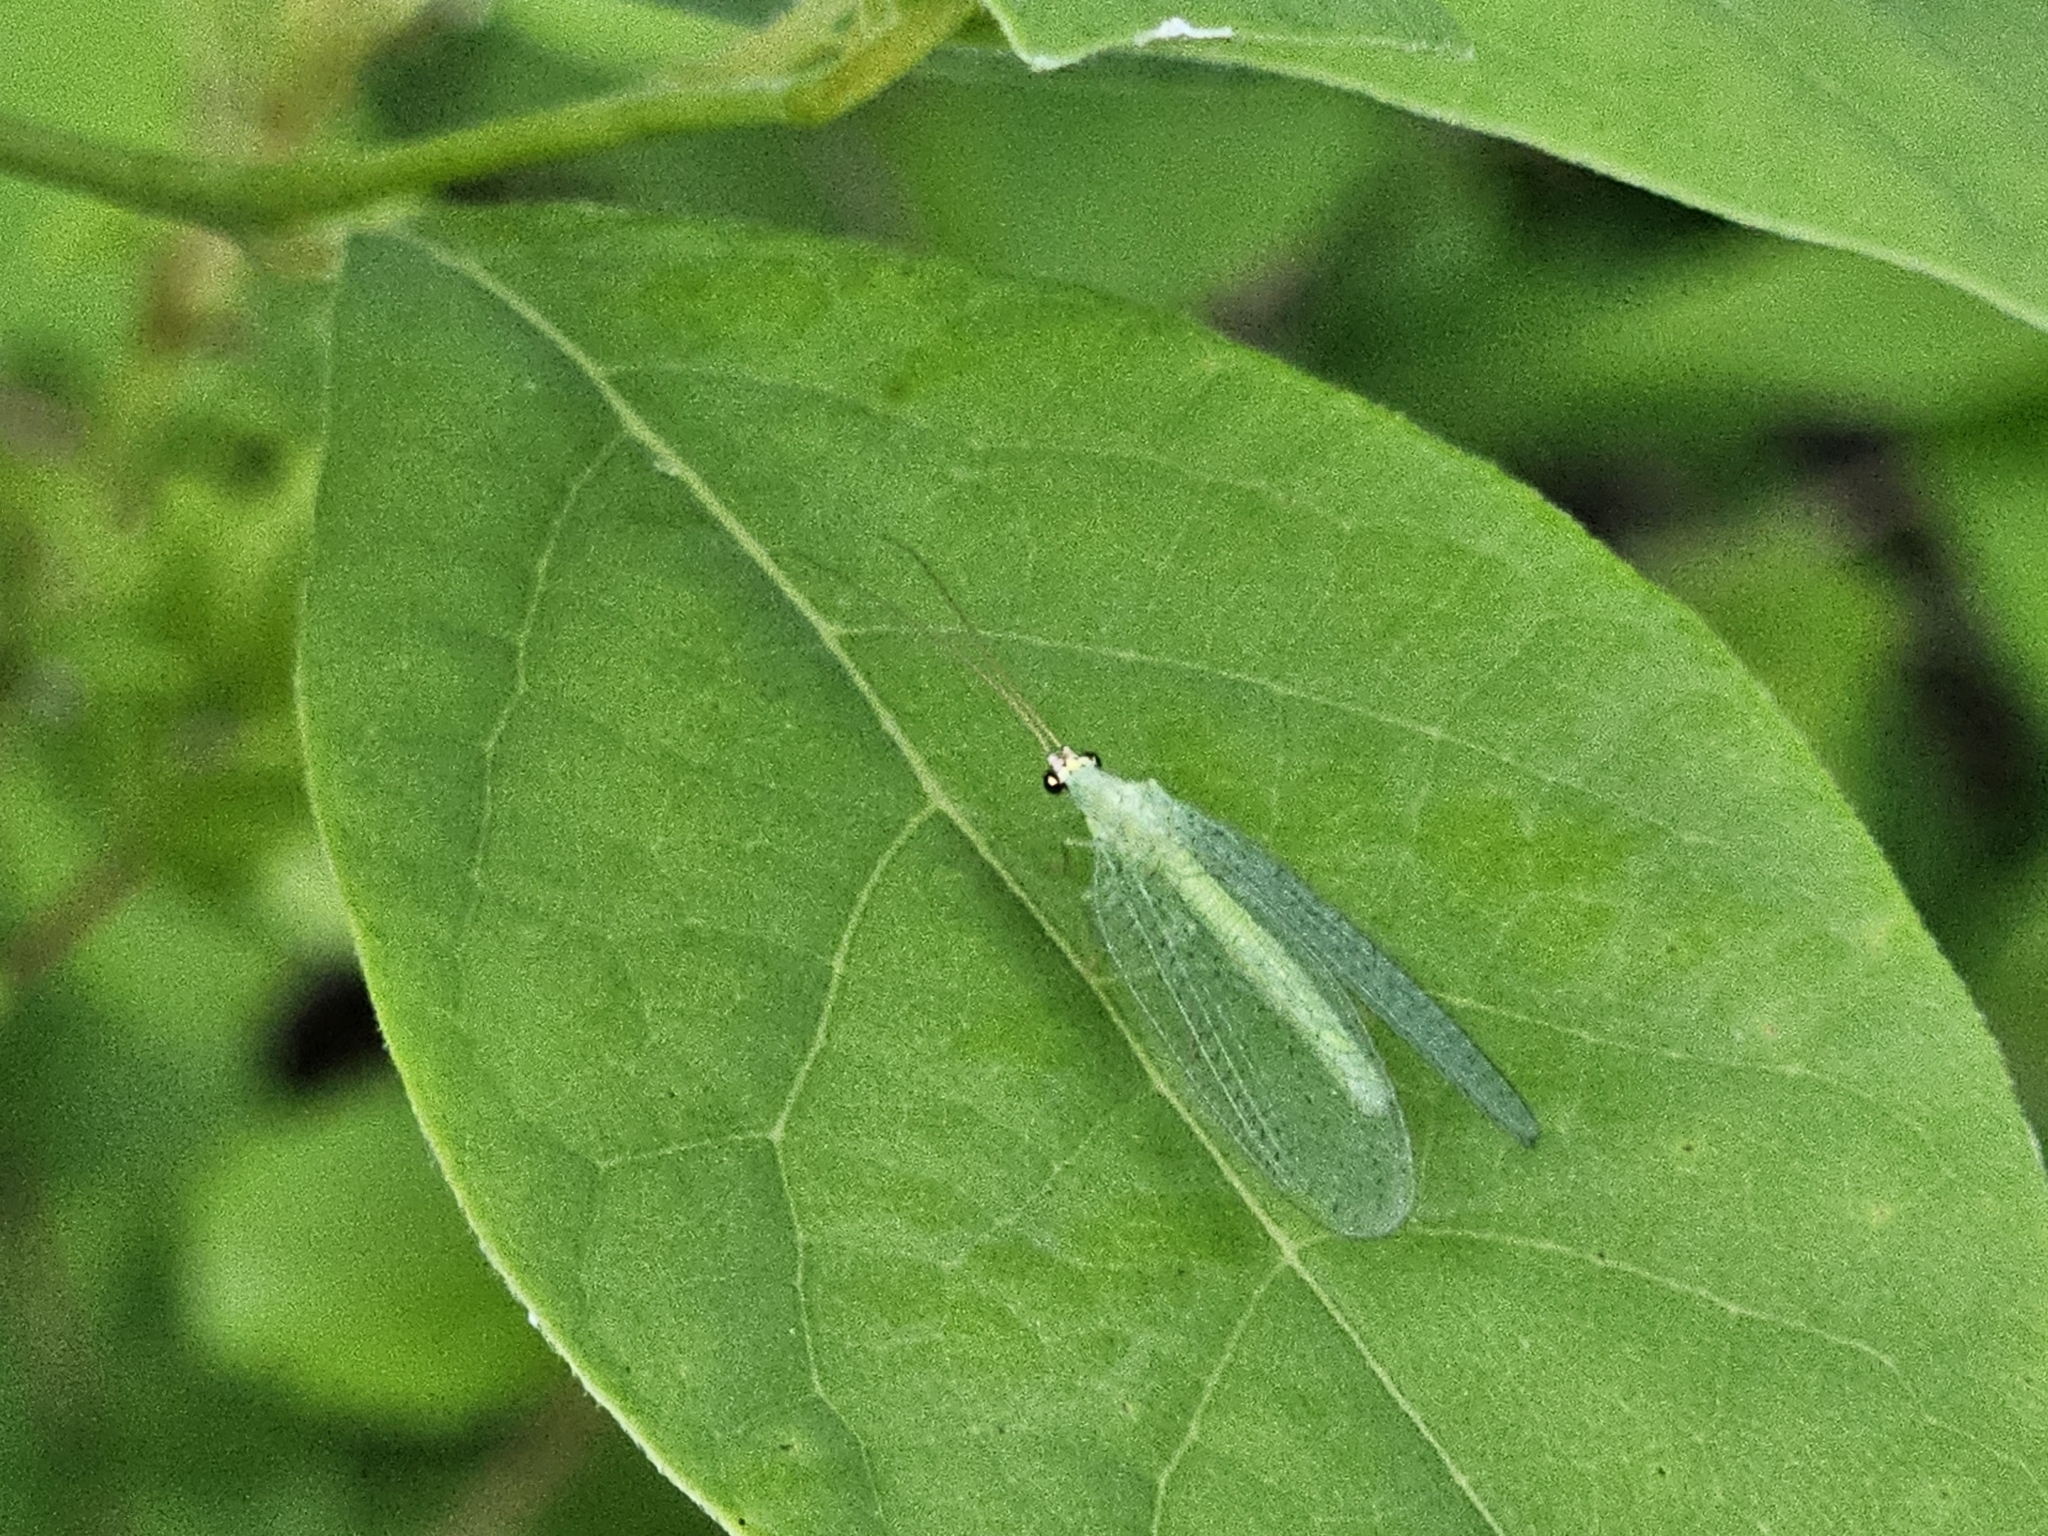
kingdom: Animalia
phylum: Arthropoda
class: Insecta
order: Neuroptera
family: Chrysopidae
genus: Chrysopa
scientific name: Chrysopa oculata
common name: Golden-eyed lacewing
